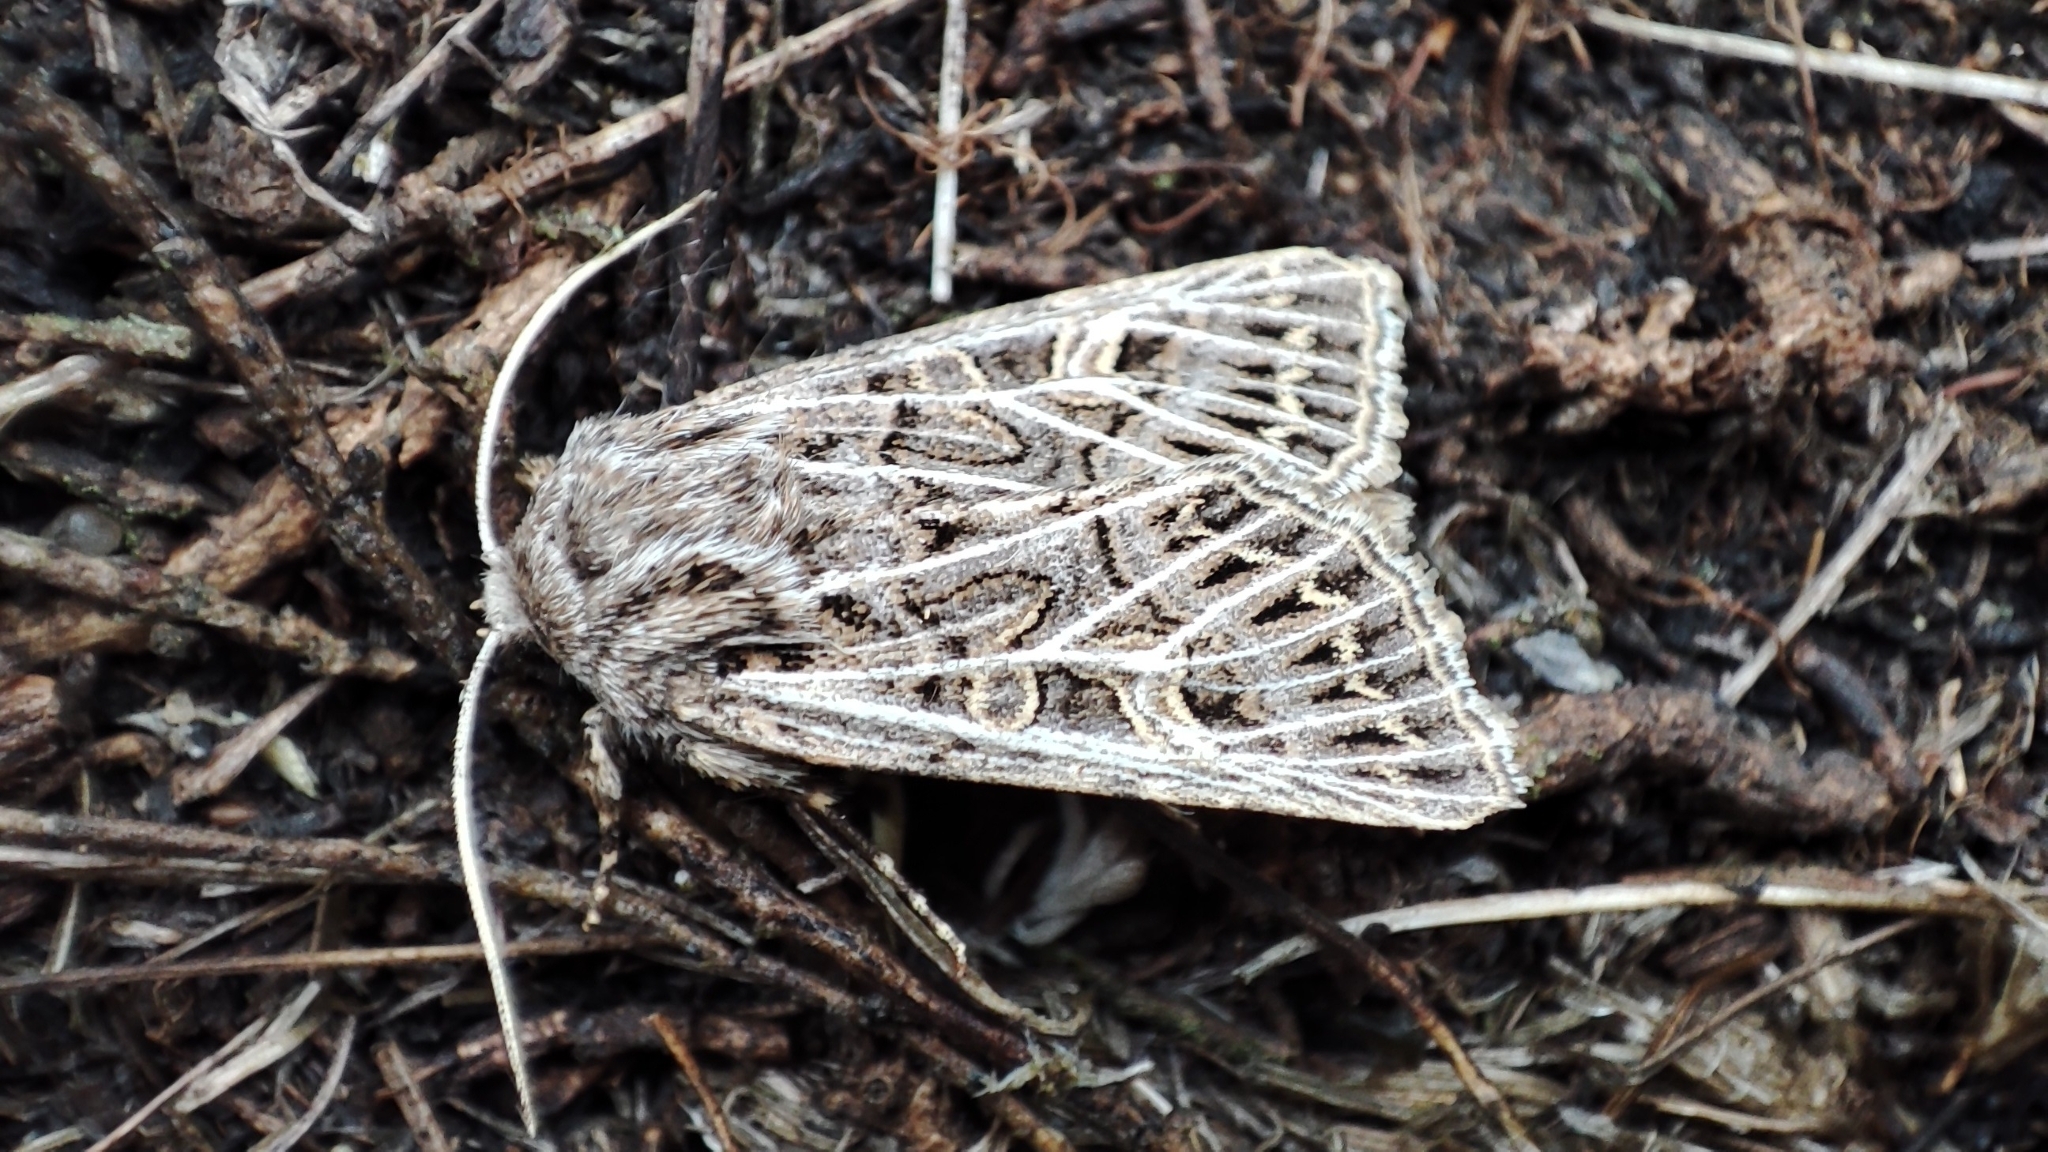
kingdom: Animalia
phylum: Arthropoda
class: Insecta
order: Lepidoptera
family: Noctuidae
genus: Tholera
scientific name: Tholera hilaris
